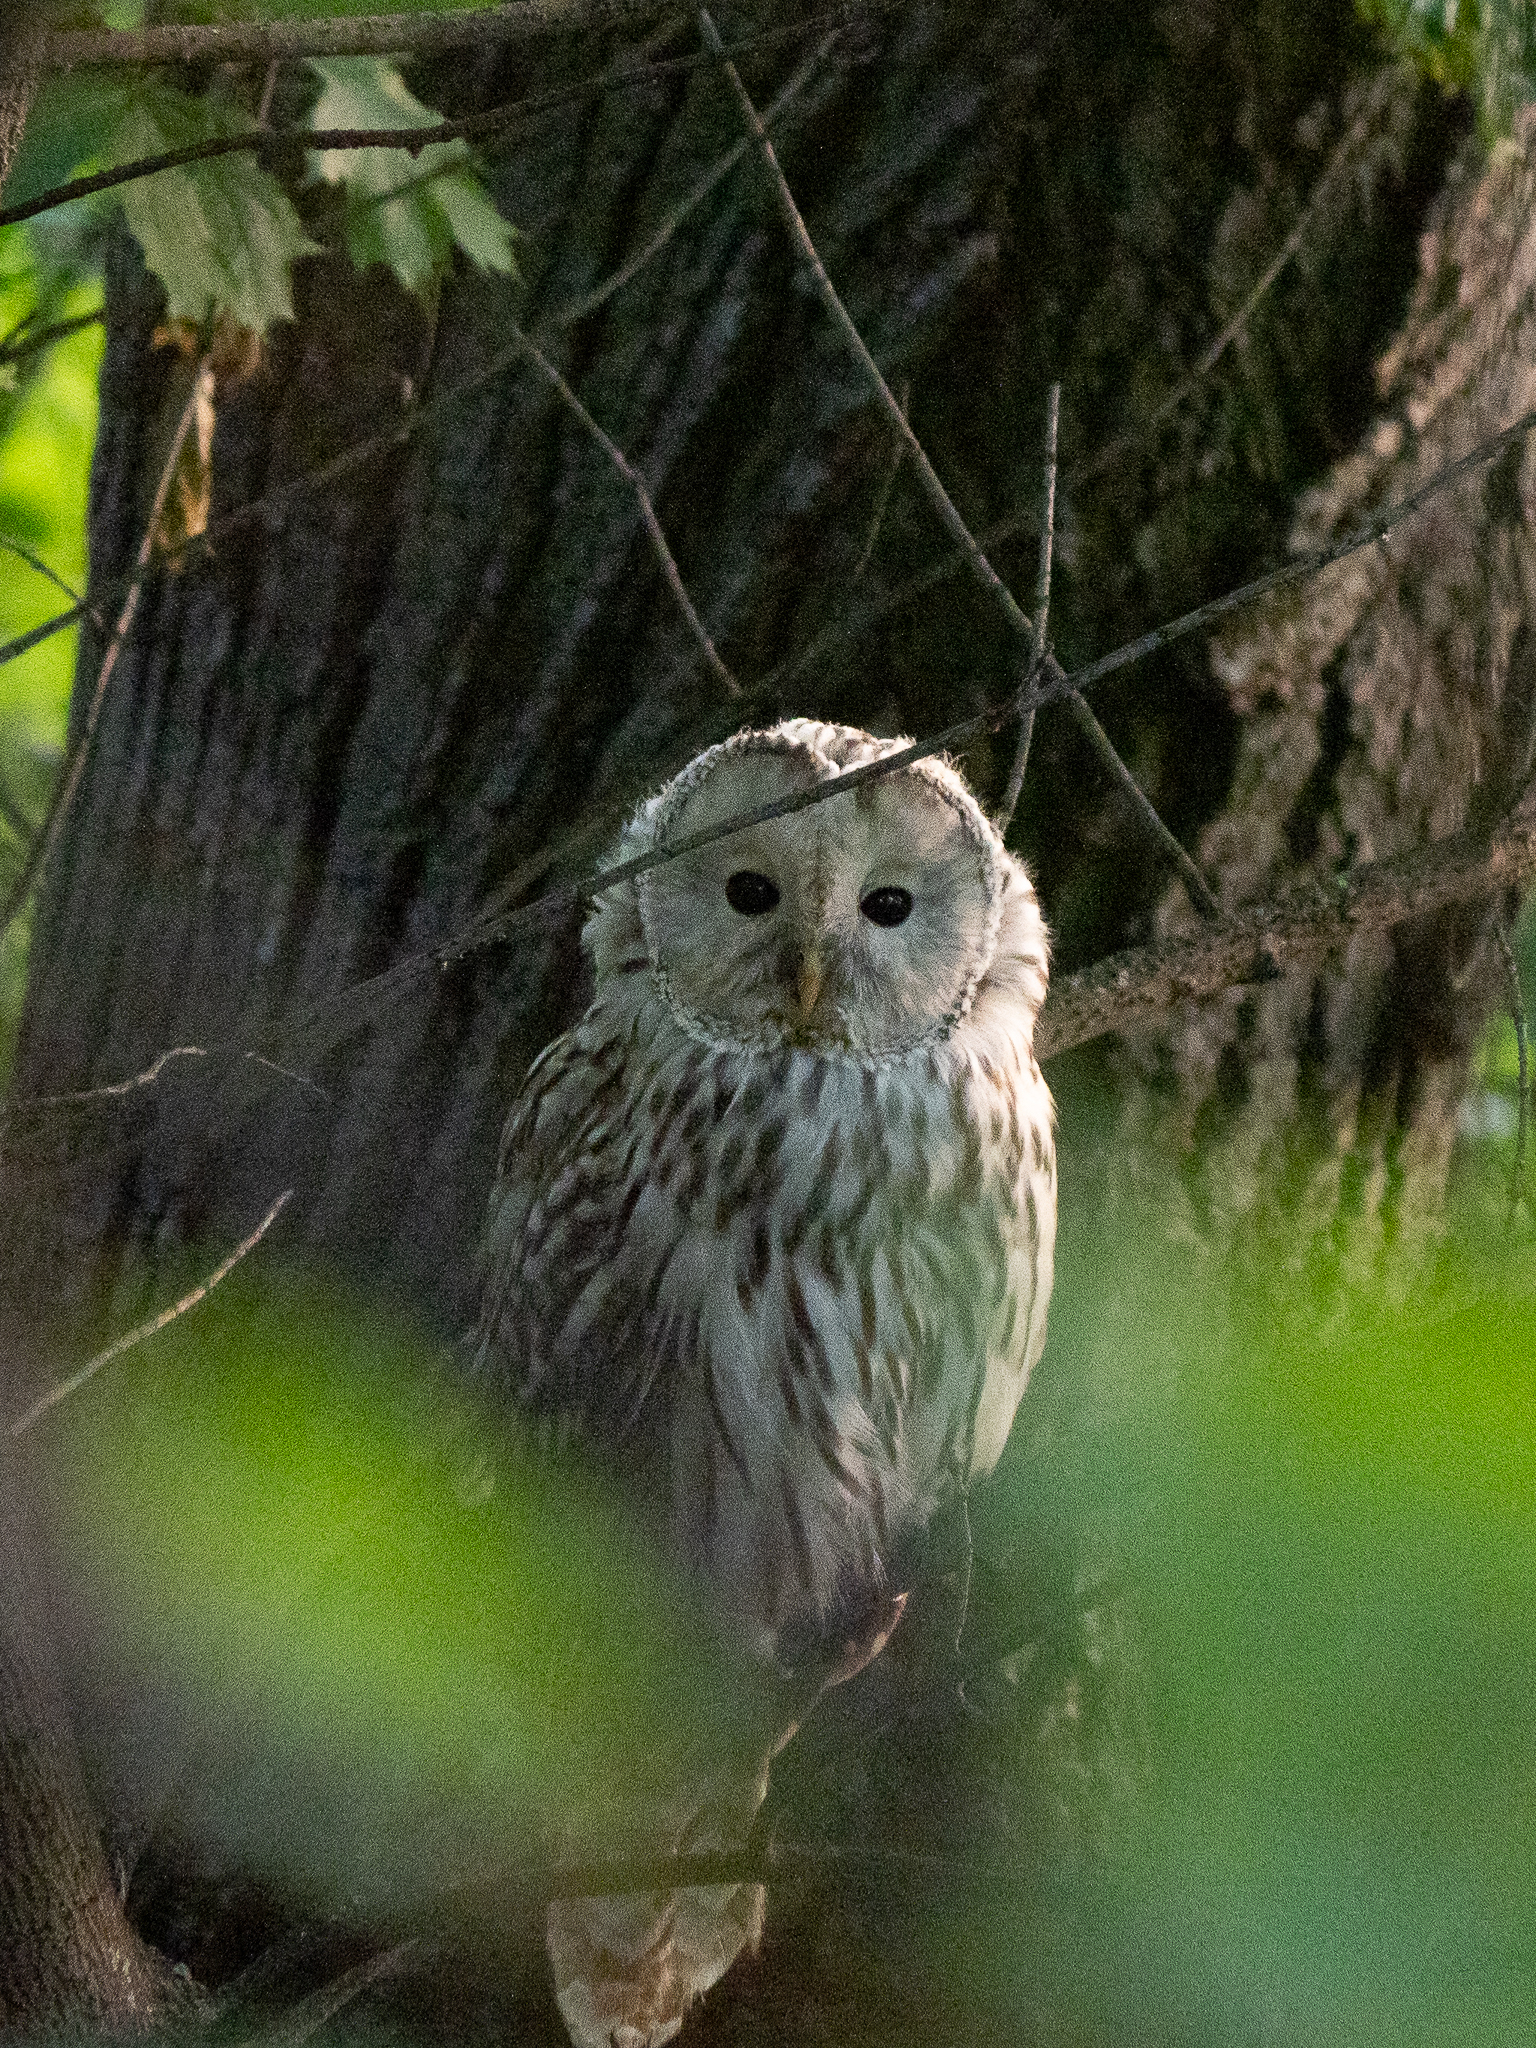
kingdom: Animalia
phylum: Chordata
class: Aves
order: Strigiformes
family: Strigidae
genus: Strix
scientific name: Strix uralensis
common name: Ural owl
